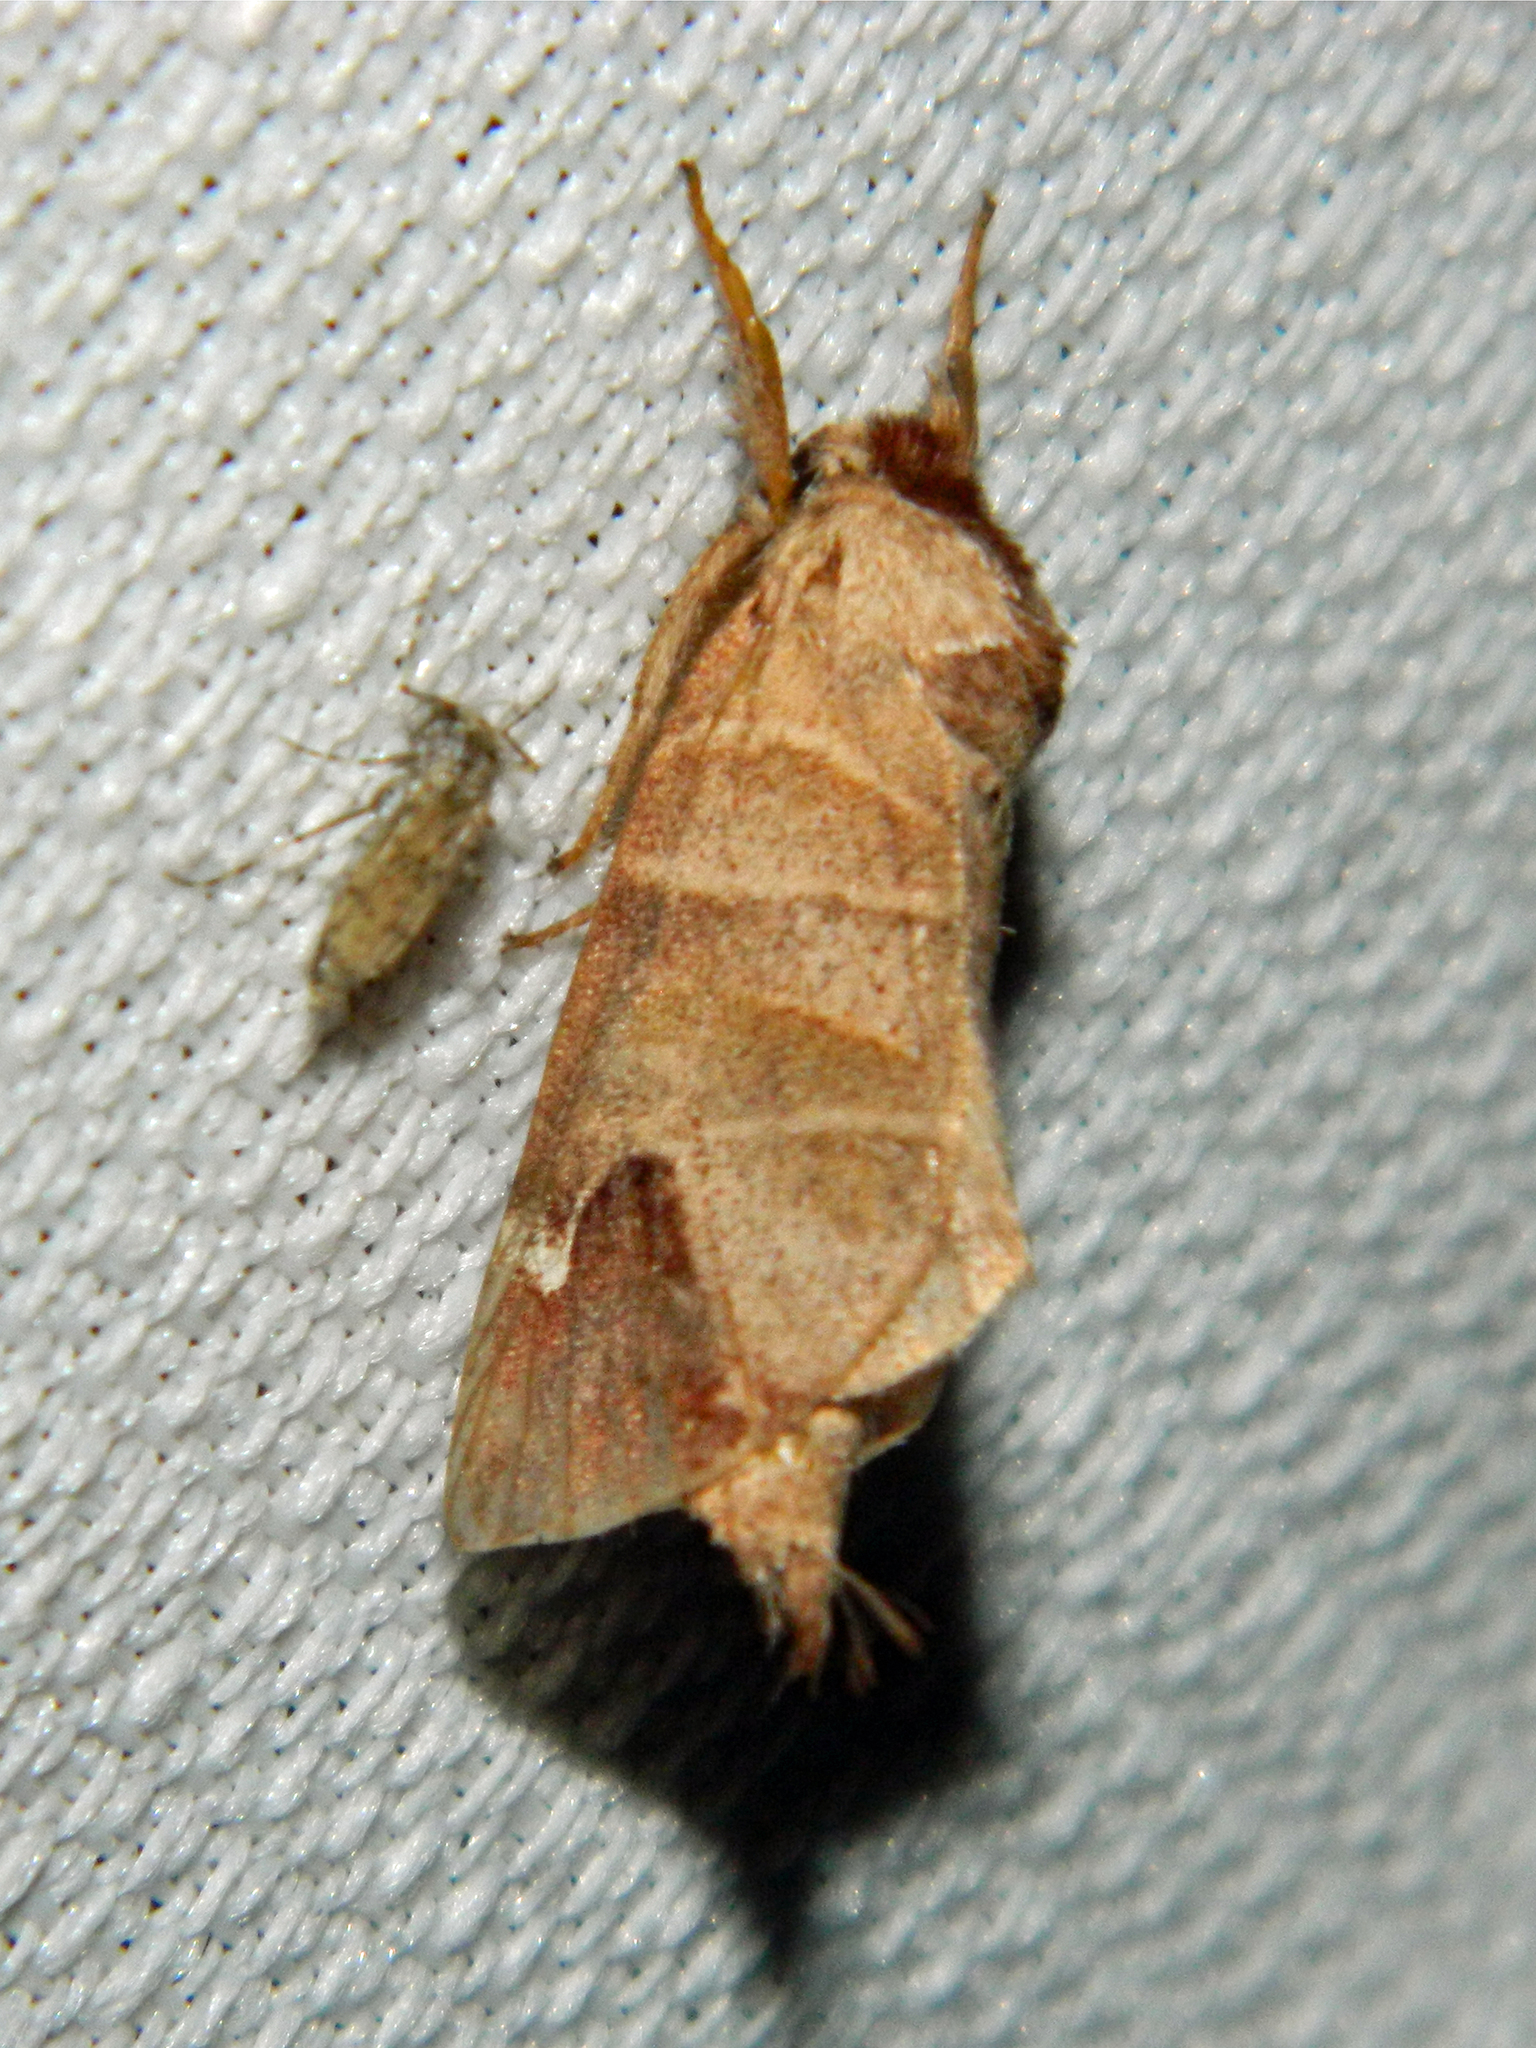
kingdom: Animalia
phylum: Arthropoda
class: Insecta
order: Lepidoptera
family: Notodontidae
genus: Clostera
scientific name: Clostera albosigma
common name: Sigmoid prominent
